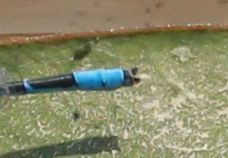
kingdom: Animalia
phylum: Arthropoda
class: Insecta
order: Odonata
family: Coenagrionidae
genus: Enallagma
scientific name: Enallagma civile
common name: Damselfly
